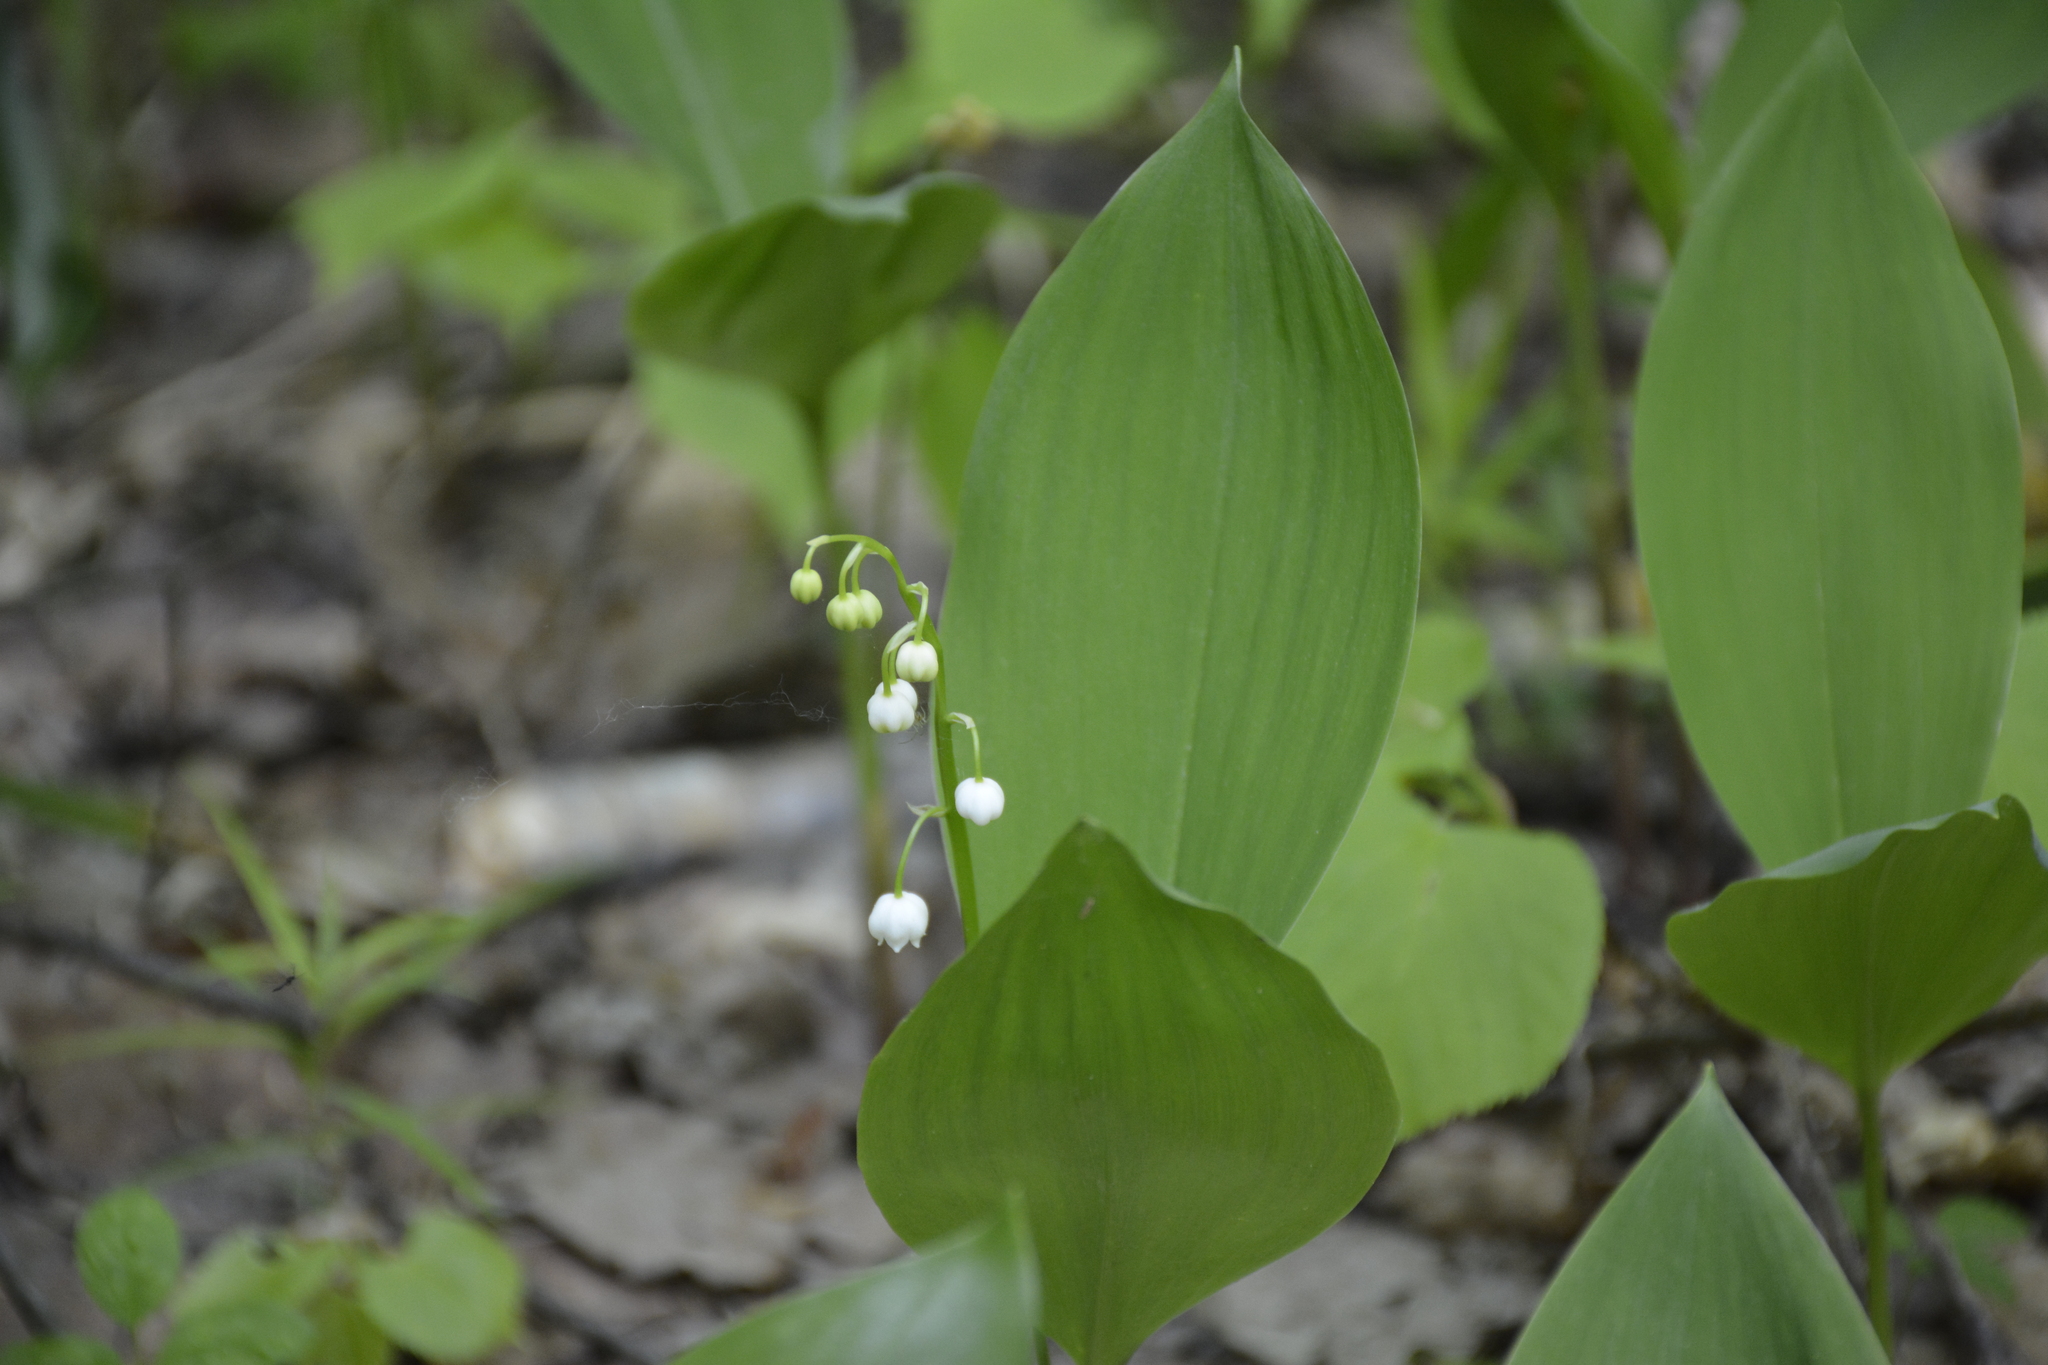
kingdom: Plantae
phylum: Tracheophyta
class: Liliopsida
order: Asparagales
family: Asparagaceae
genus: Convallaria
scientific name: Convallaria majalis
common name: Lily-of-the-valley
